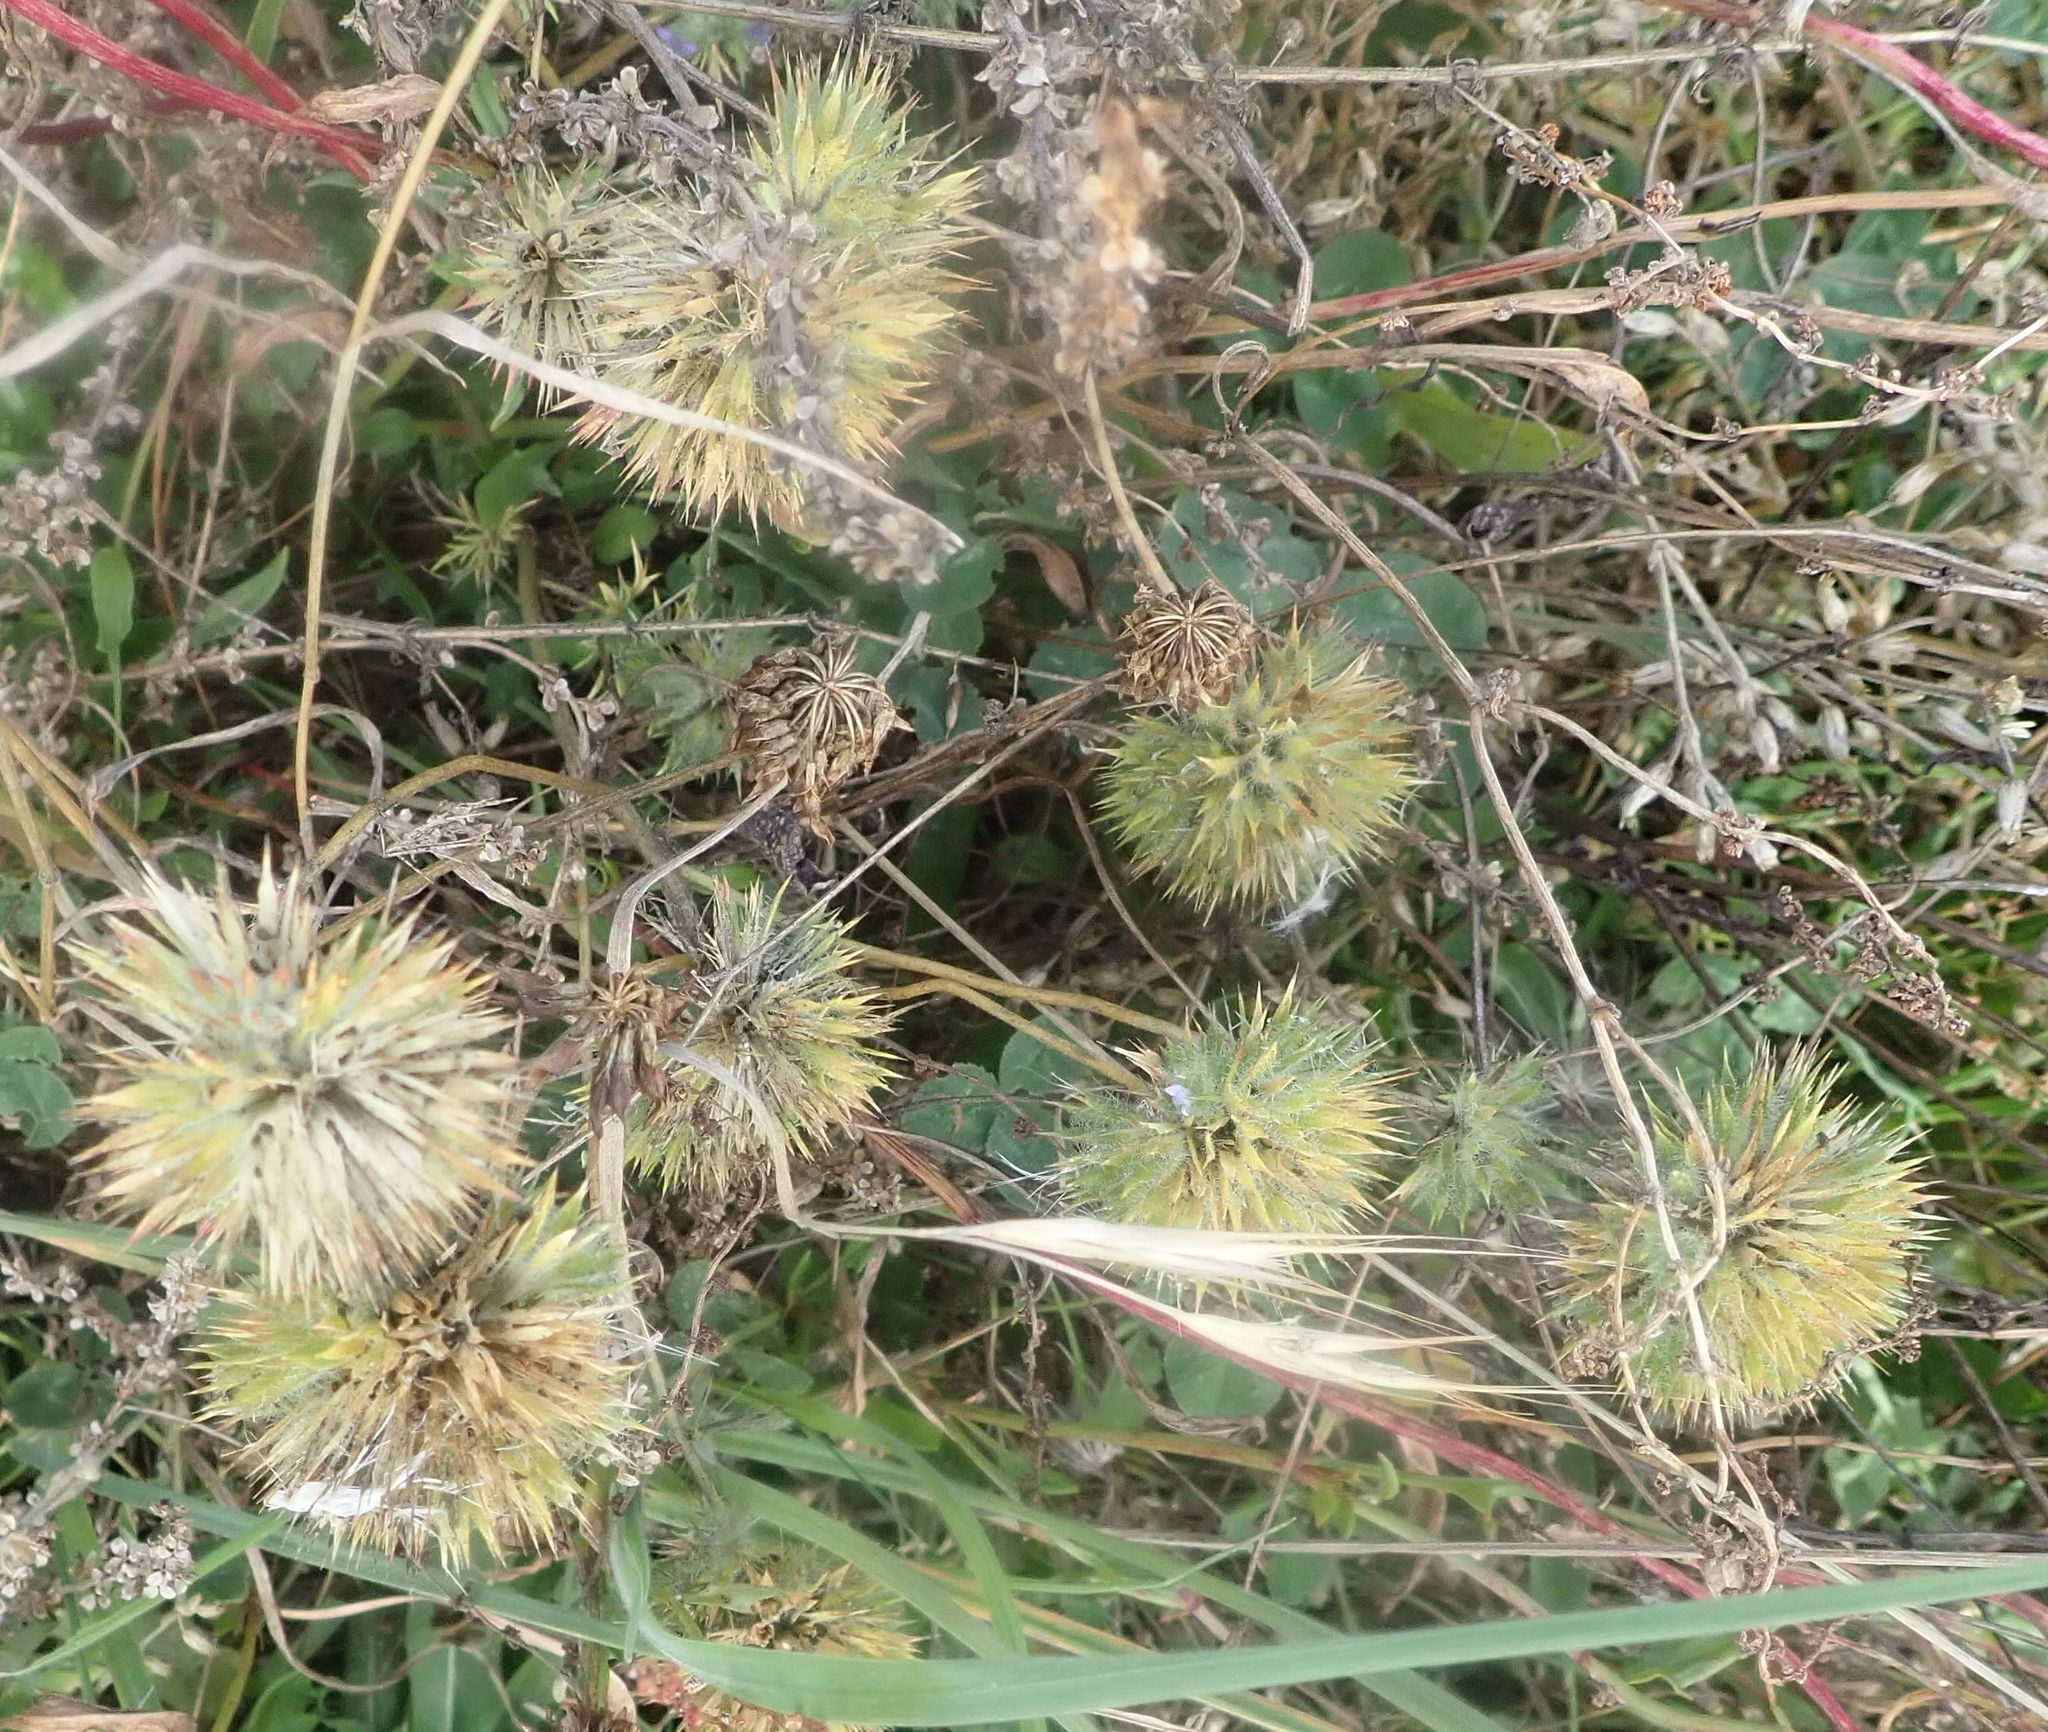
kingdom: Plantae
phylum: Tracheophyta
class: Magnoliopsida
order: Ericales
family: Polemoniaceae
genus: Navarretia
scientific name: Navarretia squarrosa
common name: Skunkweed
